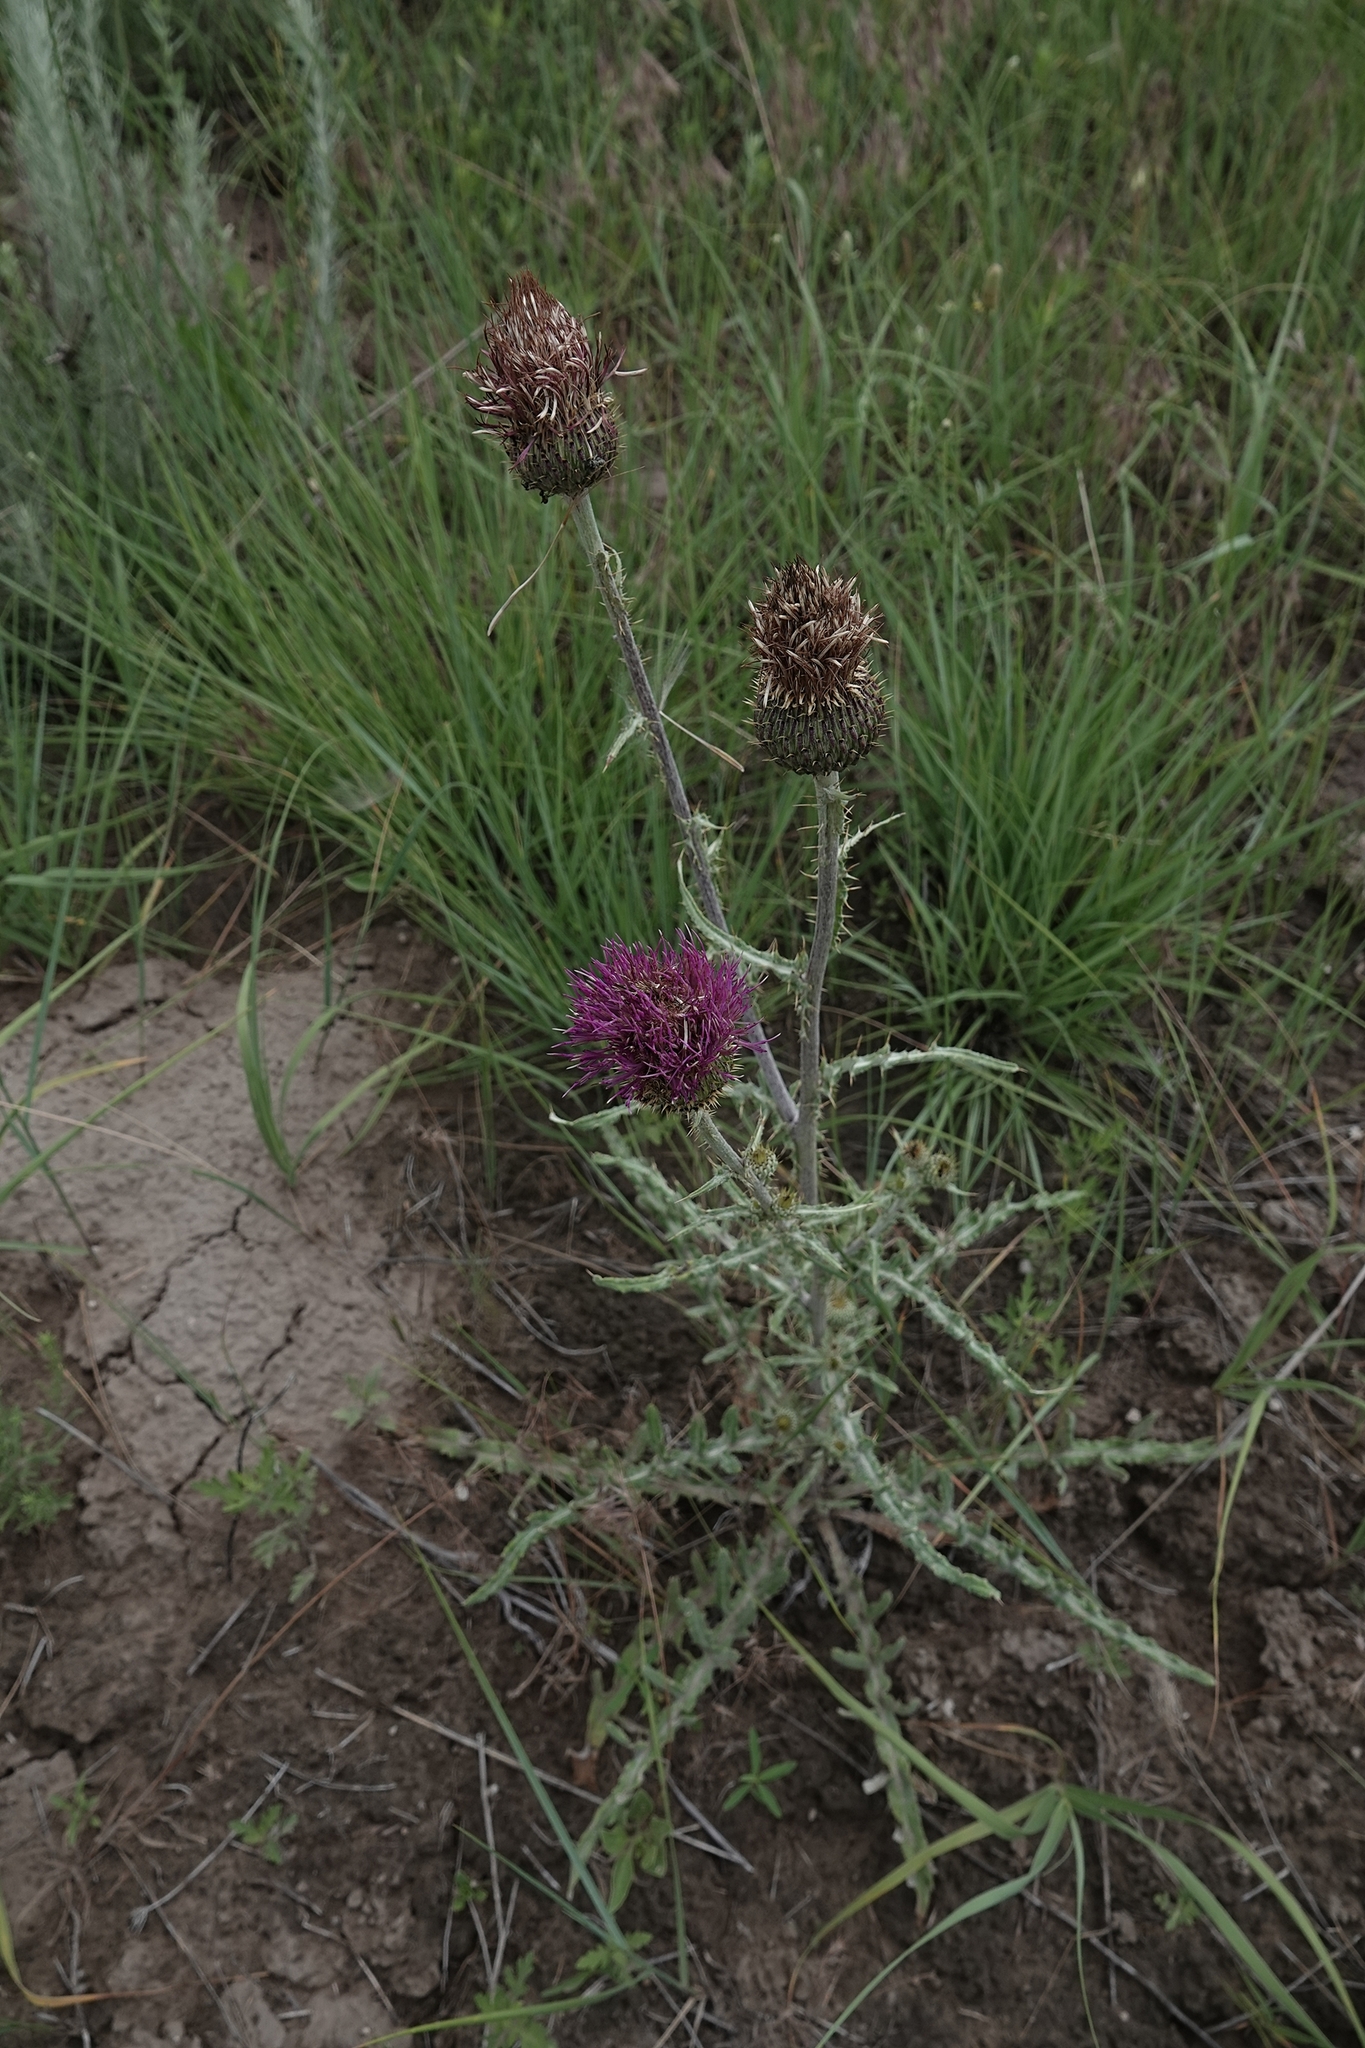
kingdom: Plantae
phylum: Tracheophyta
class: Magnoliopsida
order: Asterales
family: Asteraceae
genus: Cirsium
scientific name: Cirsium undulatum
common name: Pasture thistle
